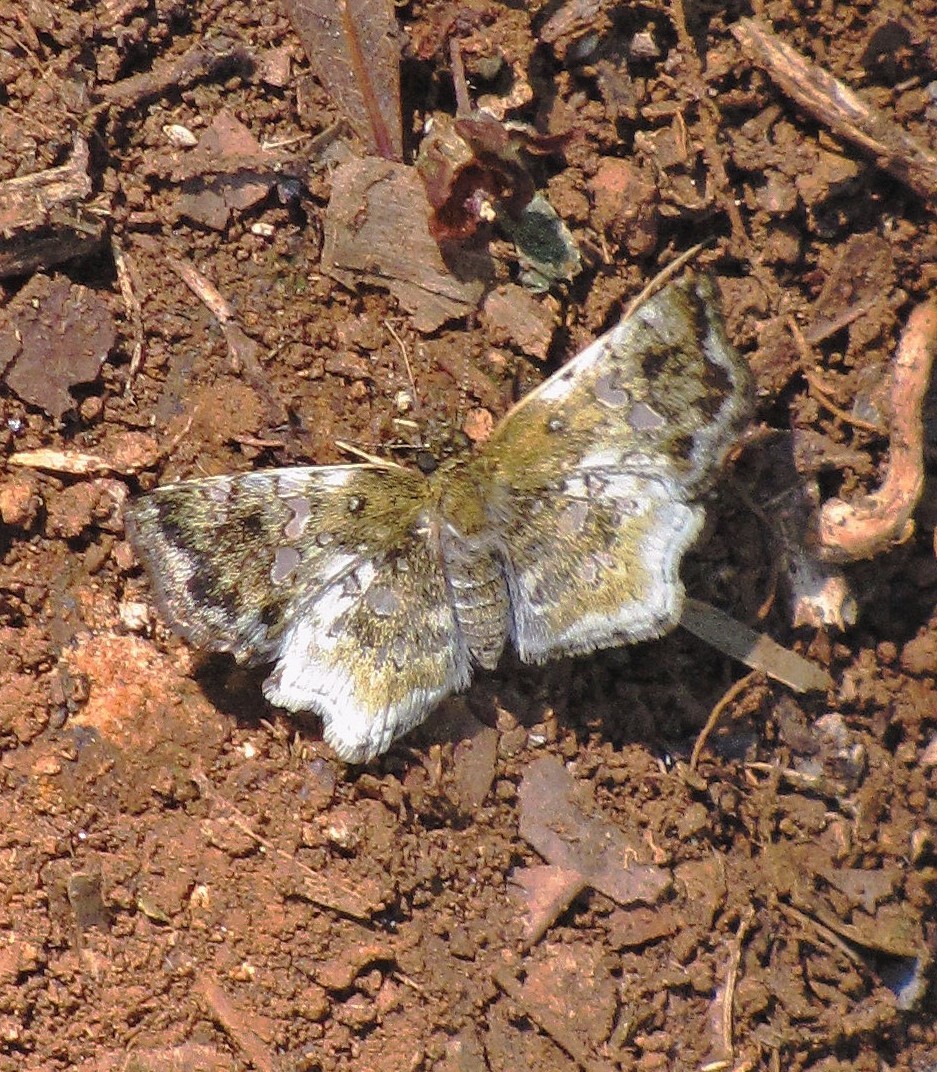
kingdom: Animalia
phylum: Arthropoda
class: Insecta
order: Lepidoptera
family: Hesperiidae
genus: Diaeus
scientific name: Diaeus variegatus
